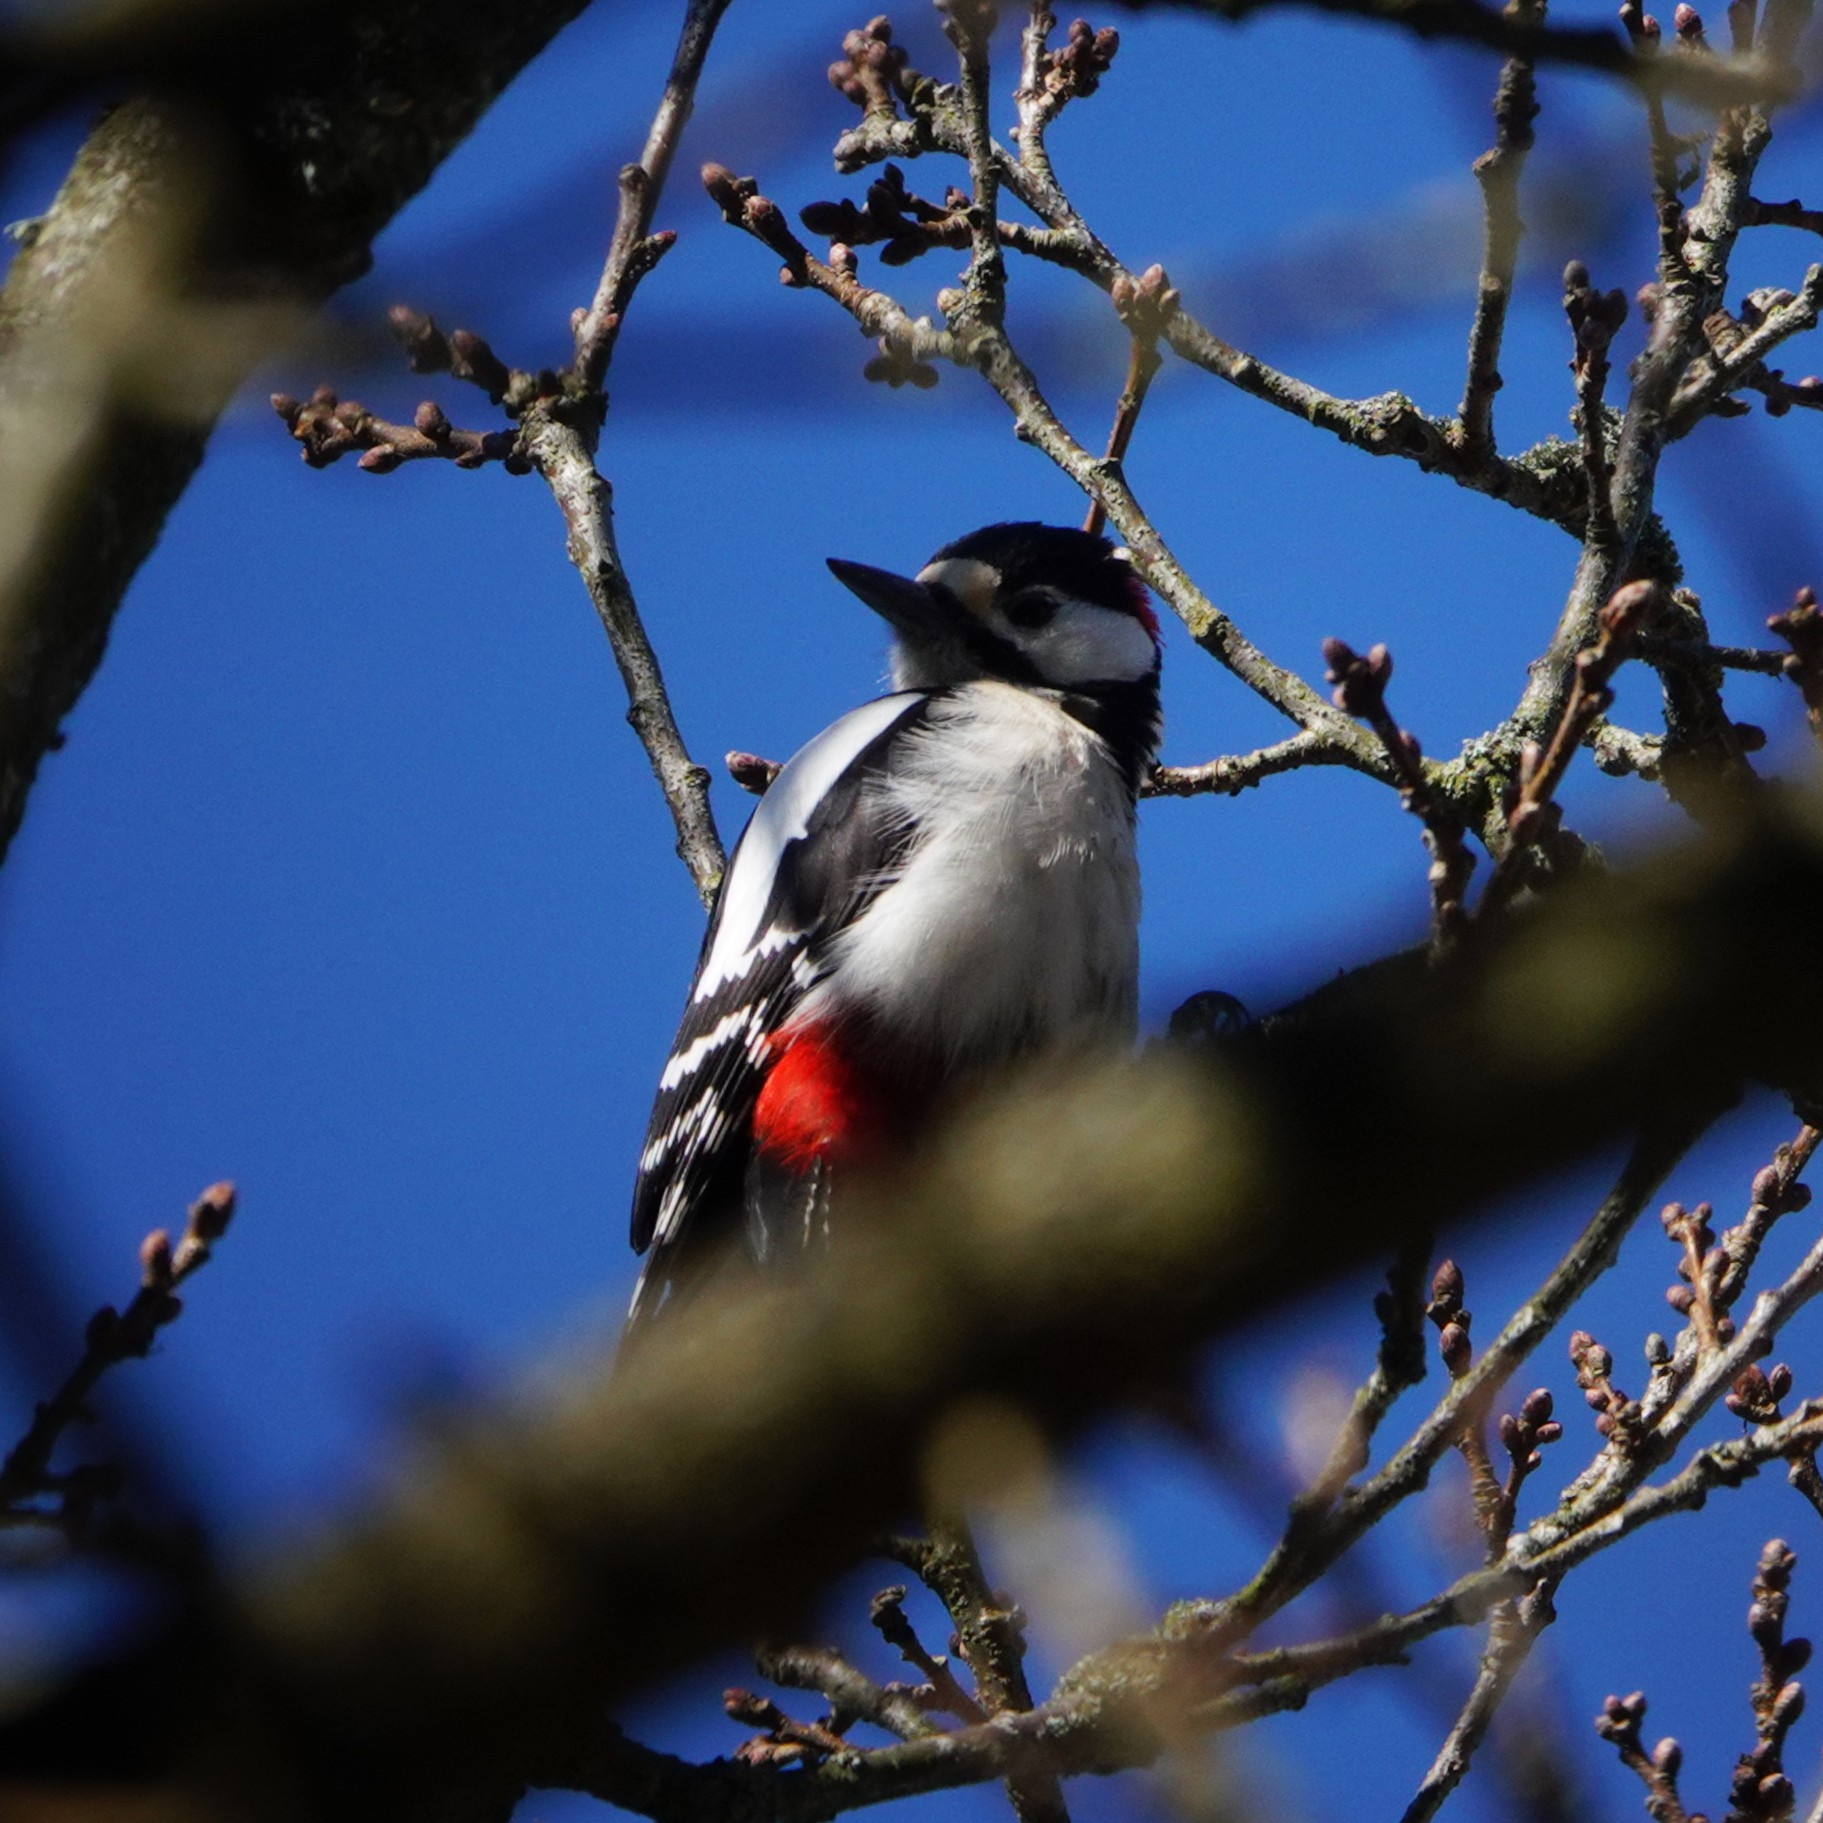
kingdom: Animalia
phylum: Chordata
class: Aves
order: Piciformes
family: Picidae
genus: Dendrocopos
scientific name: Dendrocopos major
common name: Great spotted woodpecker
